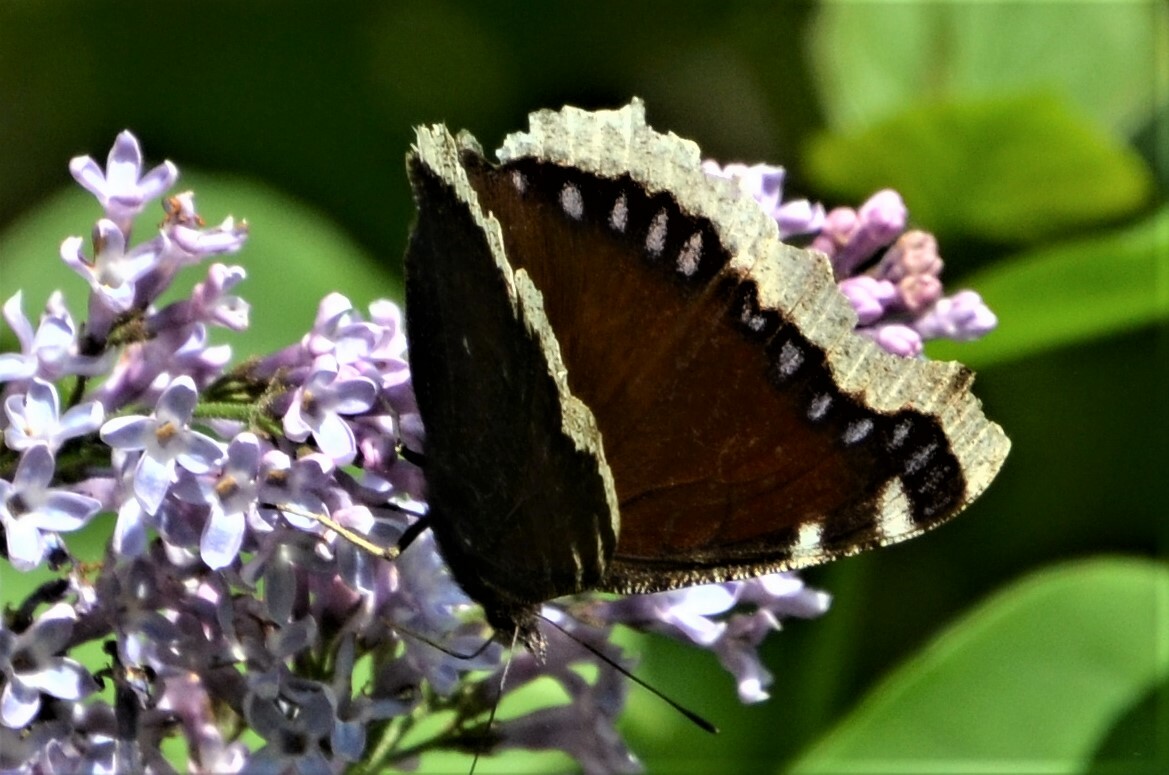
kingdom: Animalia
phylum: Arthropoda
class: Insecta
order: Lepidoptera
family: Nymphalidae
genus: Nymphalis
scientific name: Nymphalis antiopa
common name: Camberwell beauty
